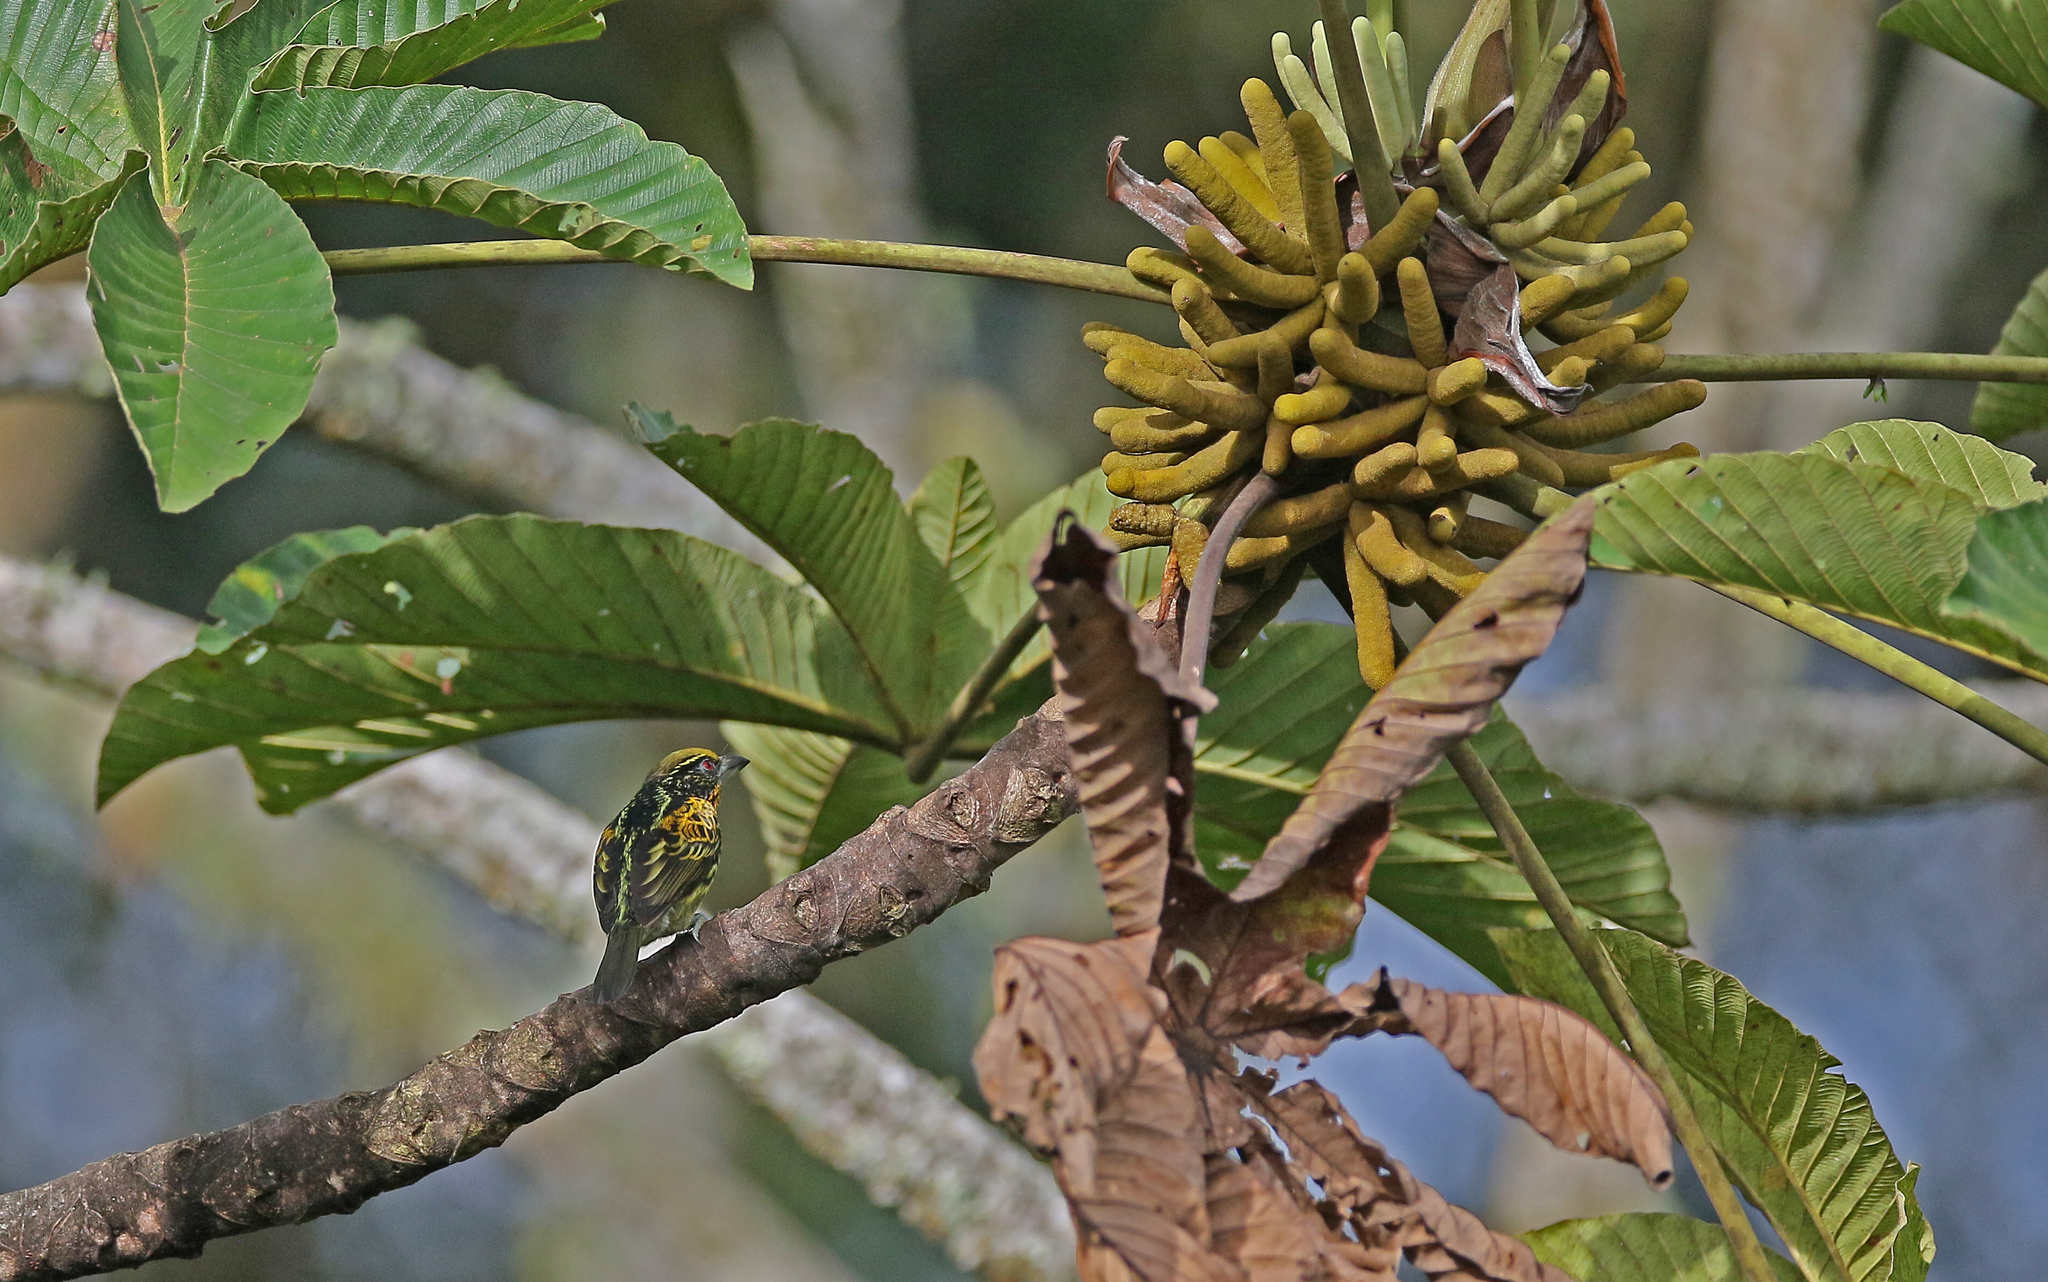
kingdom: Animalia
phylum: Chordata
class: Aves
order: Piciformes
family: Capitonidae
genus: Capito
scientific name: Capito auratus
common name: Gilded barbet
